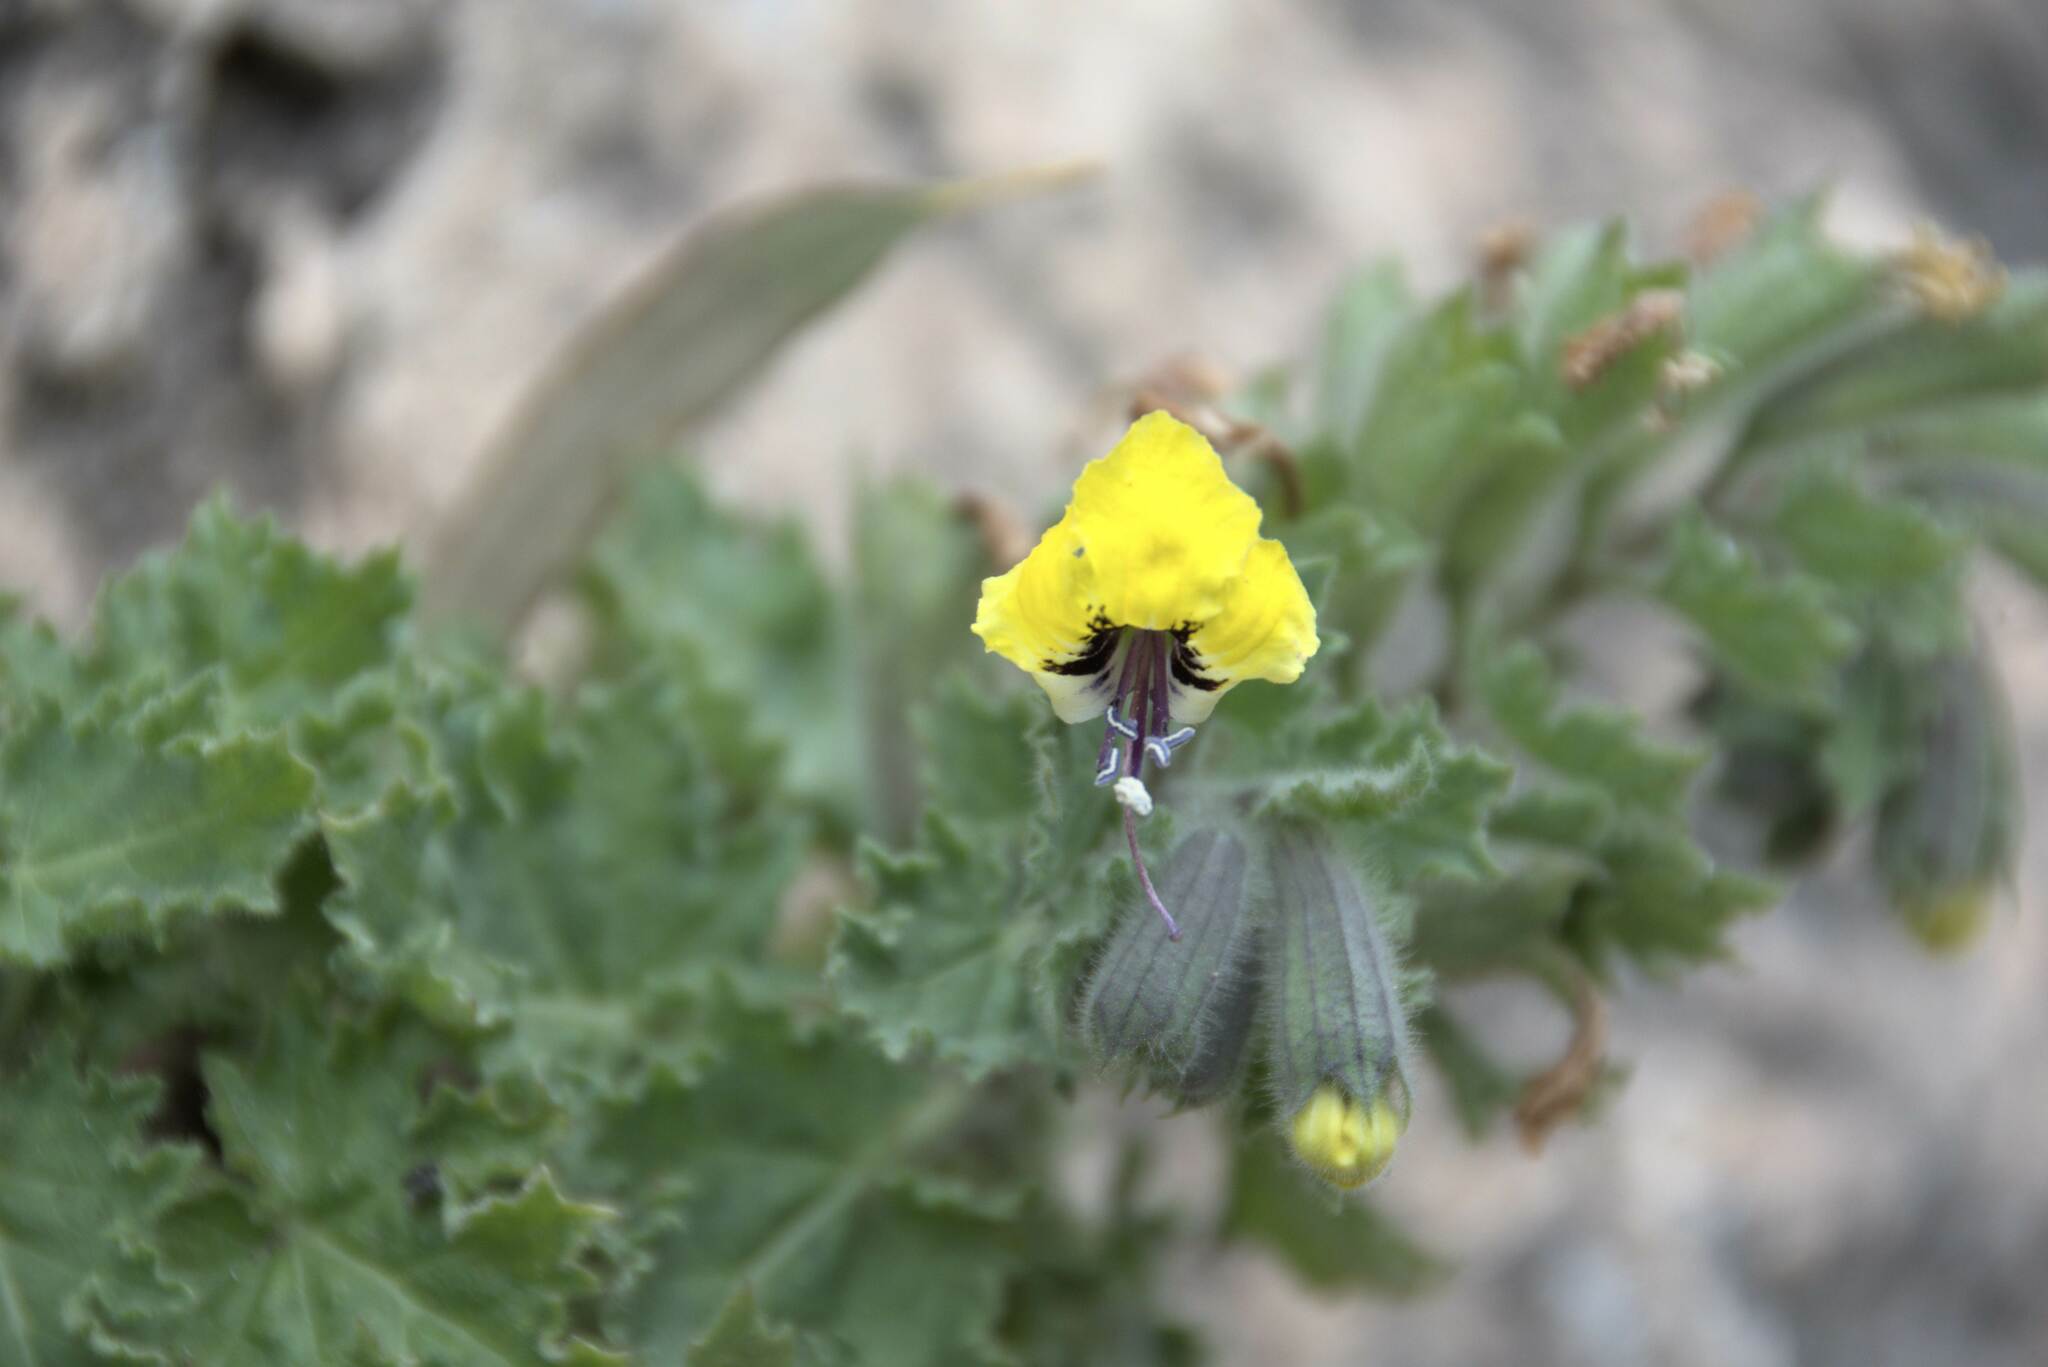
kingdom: Plantae
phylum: Tracheophyta
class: Magnoliopsida
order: Solanales
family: Solanaceae
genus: Hyoscyamus
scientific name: Hyoscyamus aureus
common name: Golden henbane
